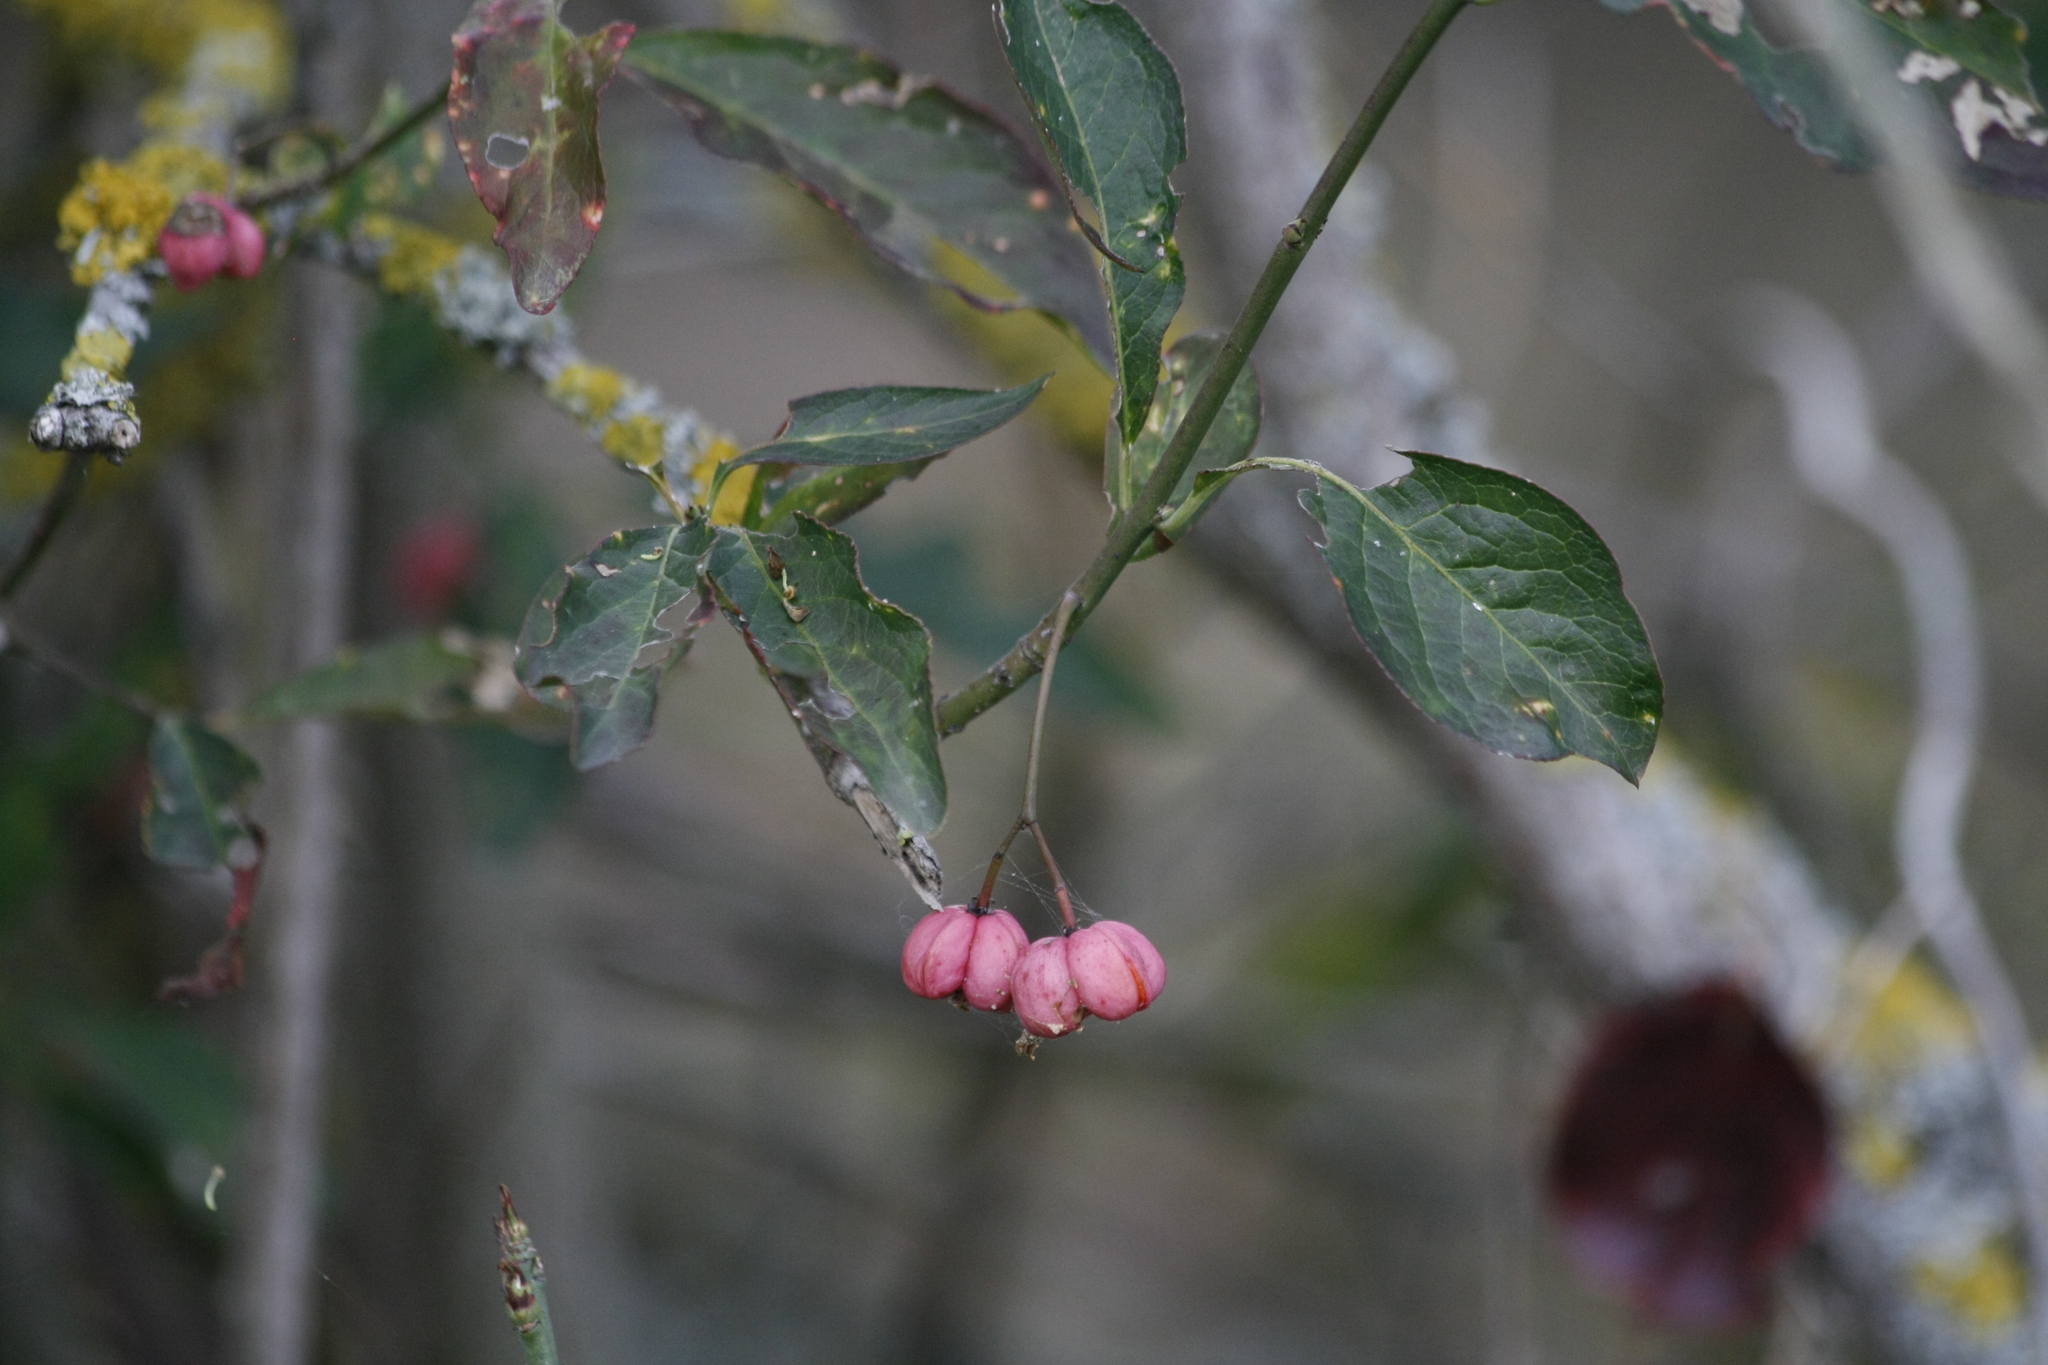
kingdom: Plantae
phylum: Tracheophyta
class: Magnoliopsida
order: Celastrales
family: Celastraceae
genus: Euonymus
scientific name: Euonymus europaeus
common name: Spindle
